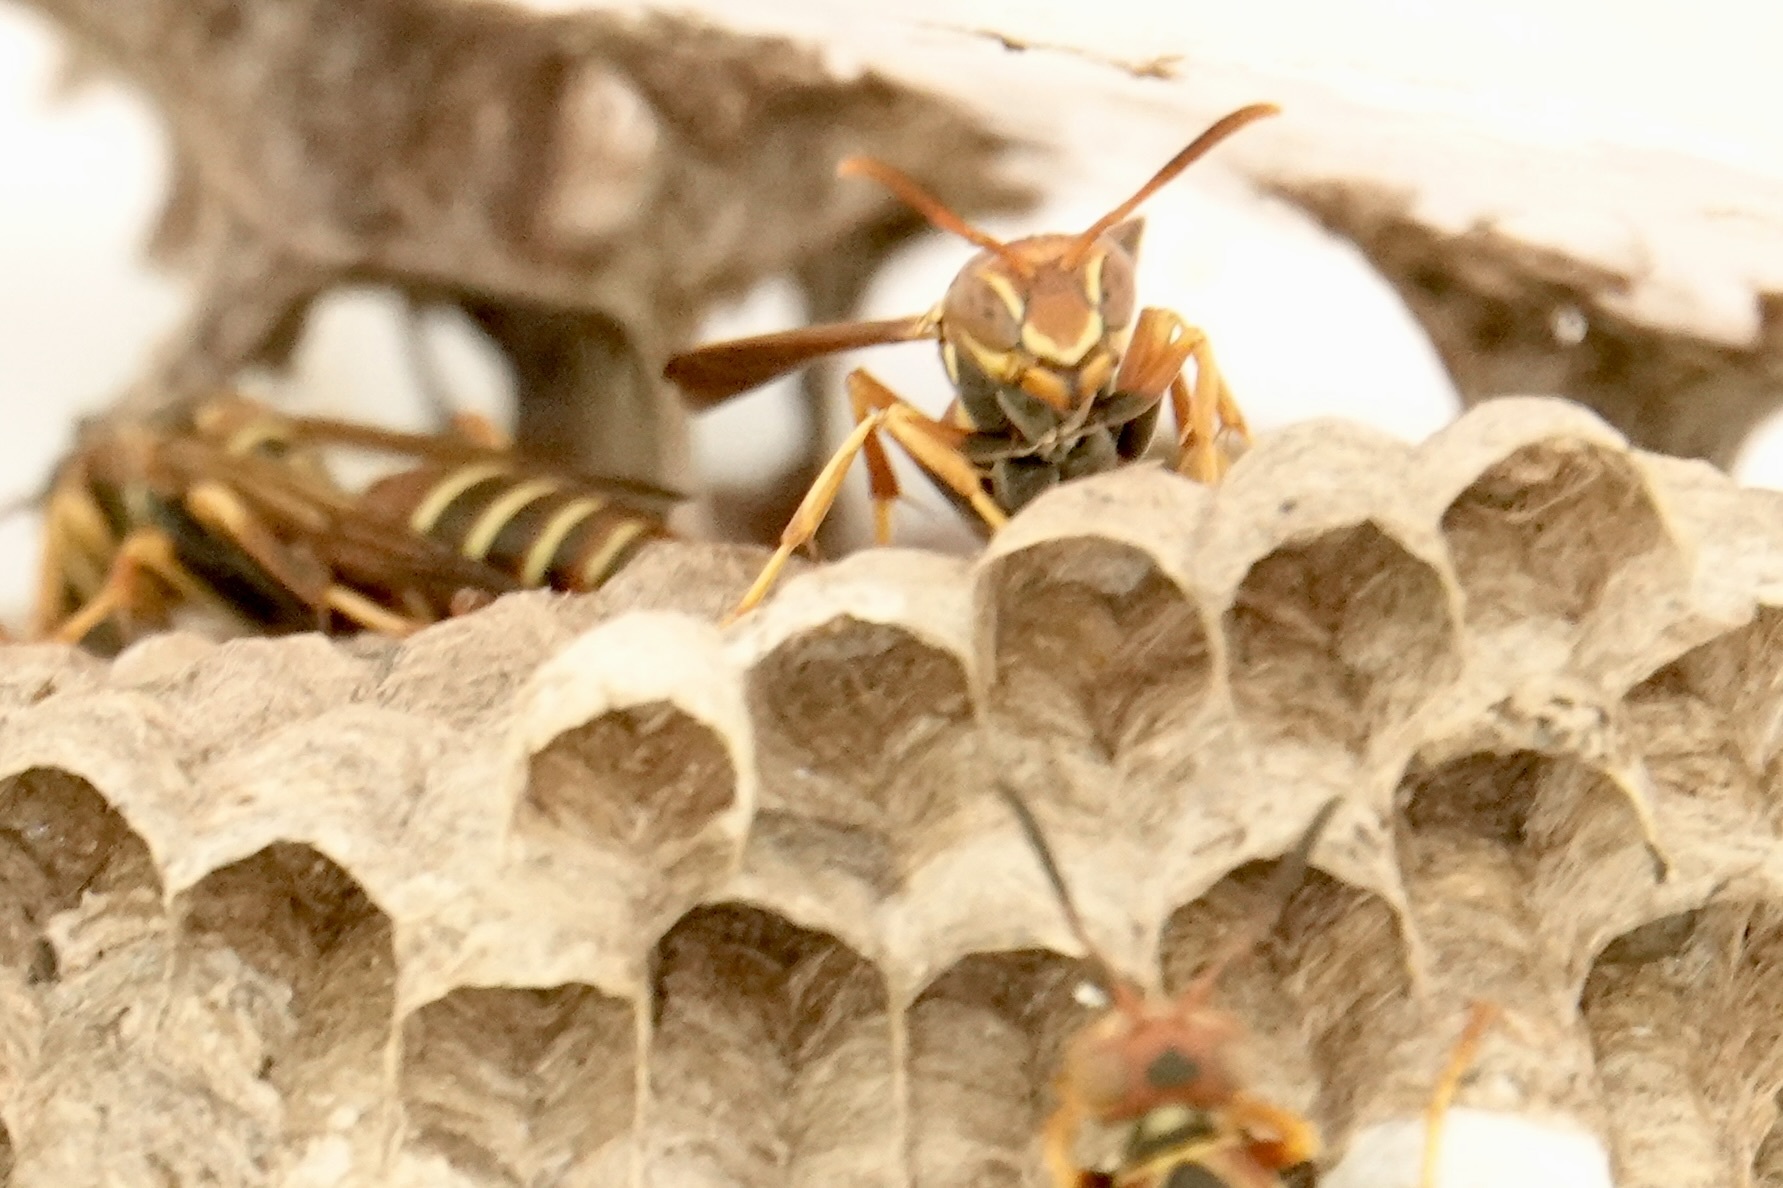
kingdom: Animalia
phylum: Arthropoda
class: Insecta
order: Hymenoptera
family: Eumenidae
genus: Polistes
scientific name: Polistes dorsalis
